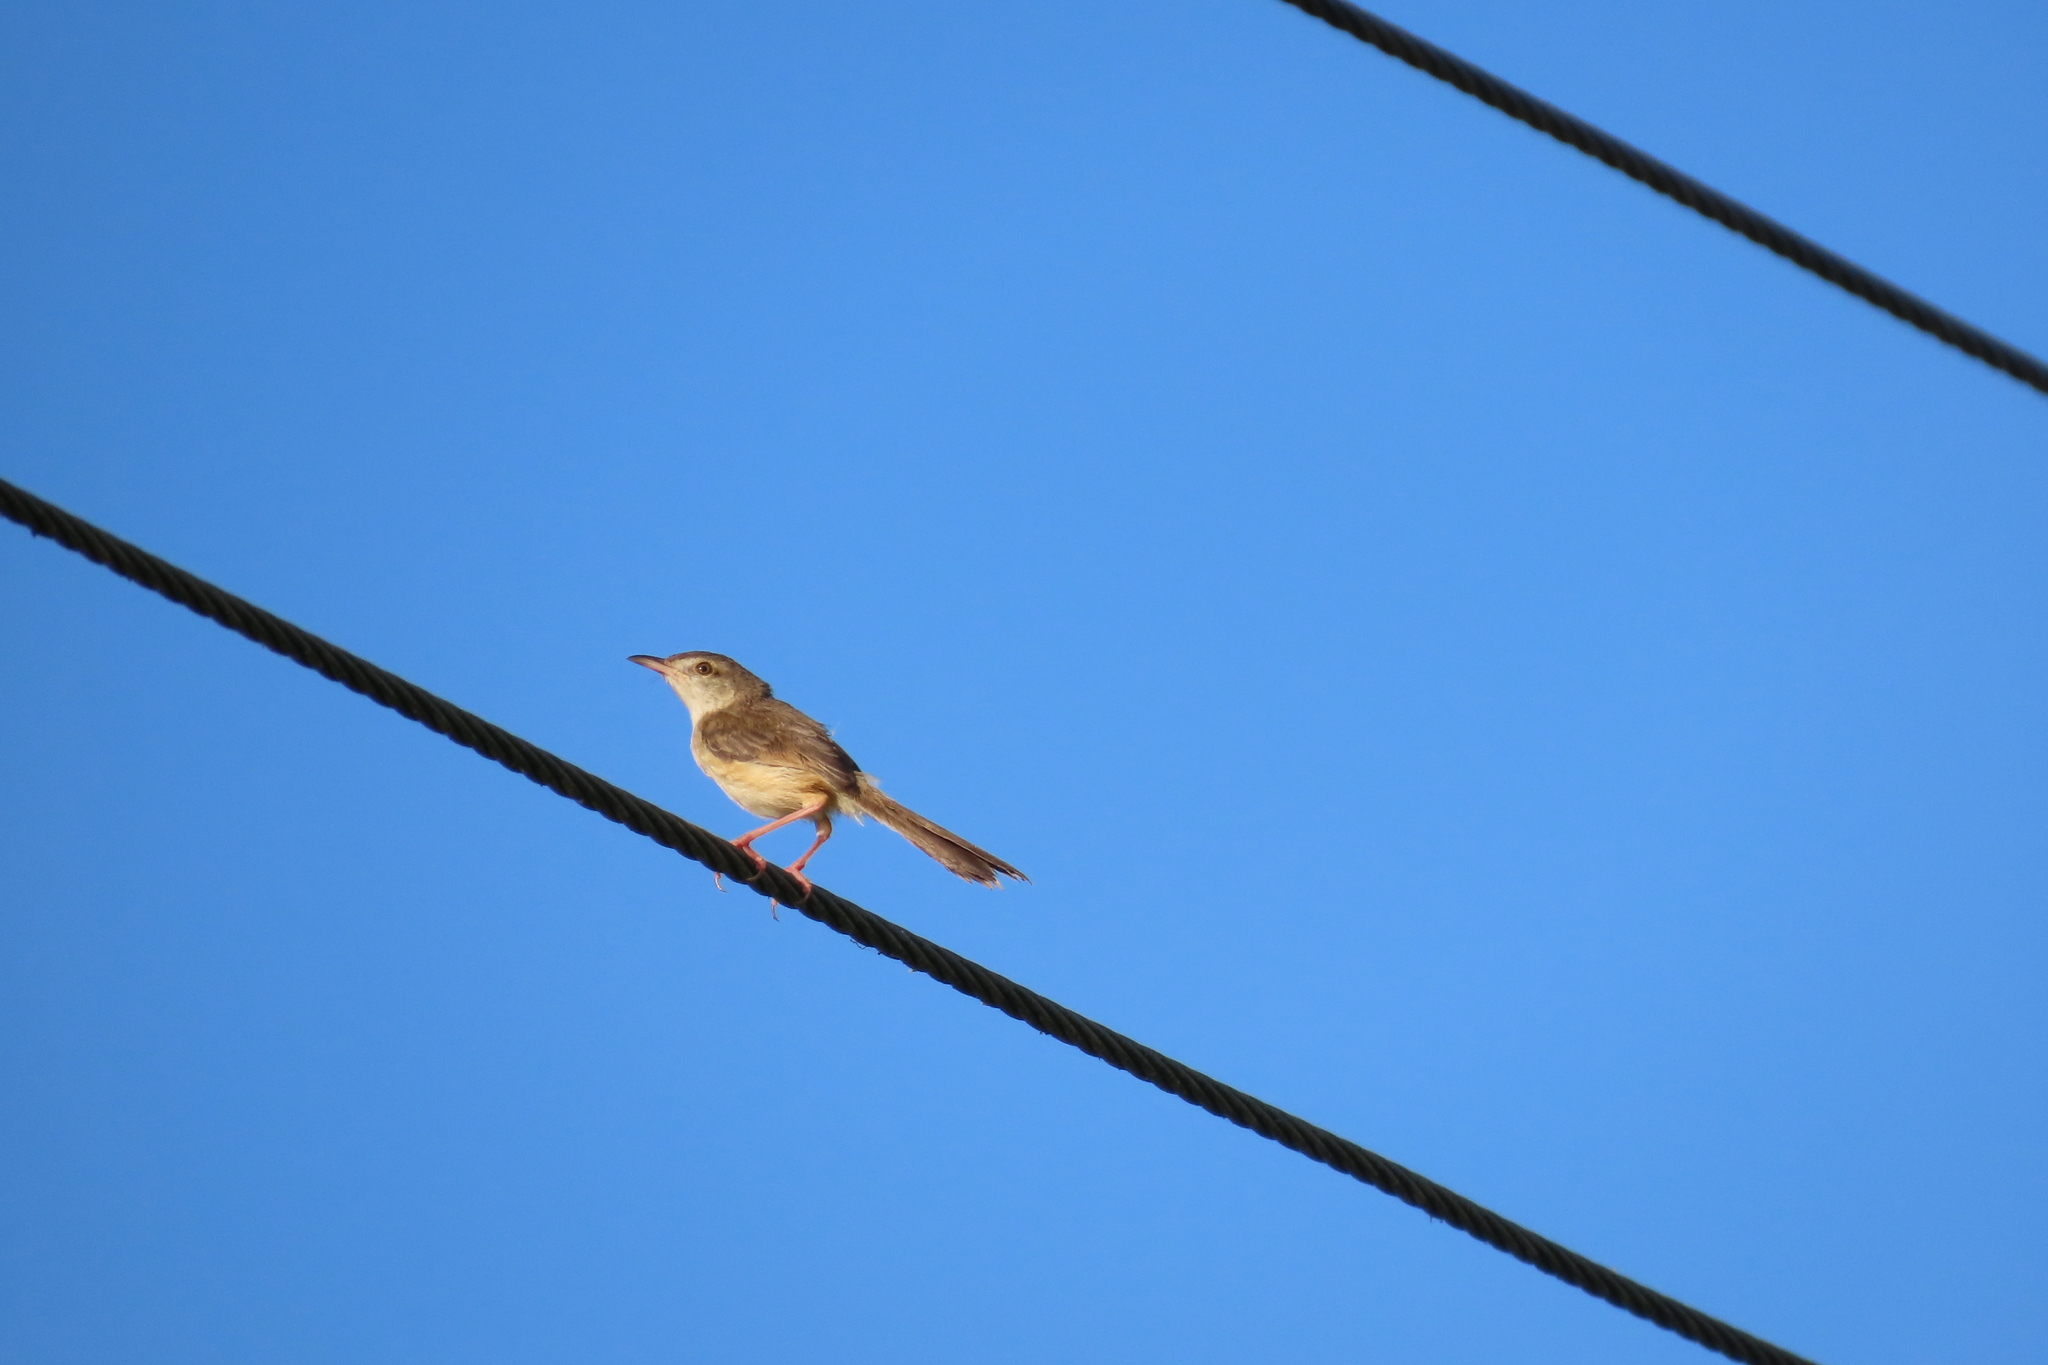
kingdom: Animalia
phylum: Chordata
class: Aves
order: Passeriformes
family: Cisticolidae
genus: Prinia
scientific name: Prinia inornata
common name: Plain prinia
